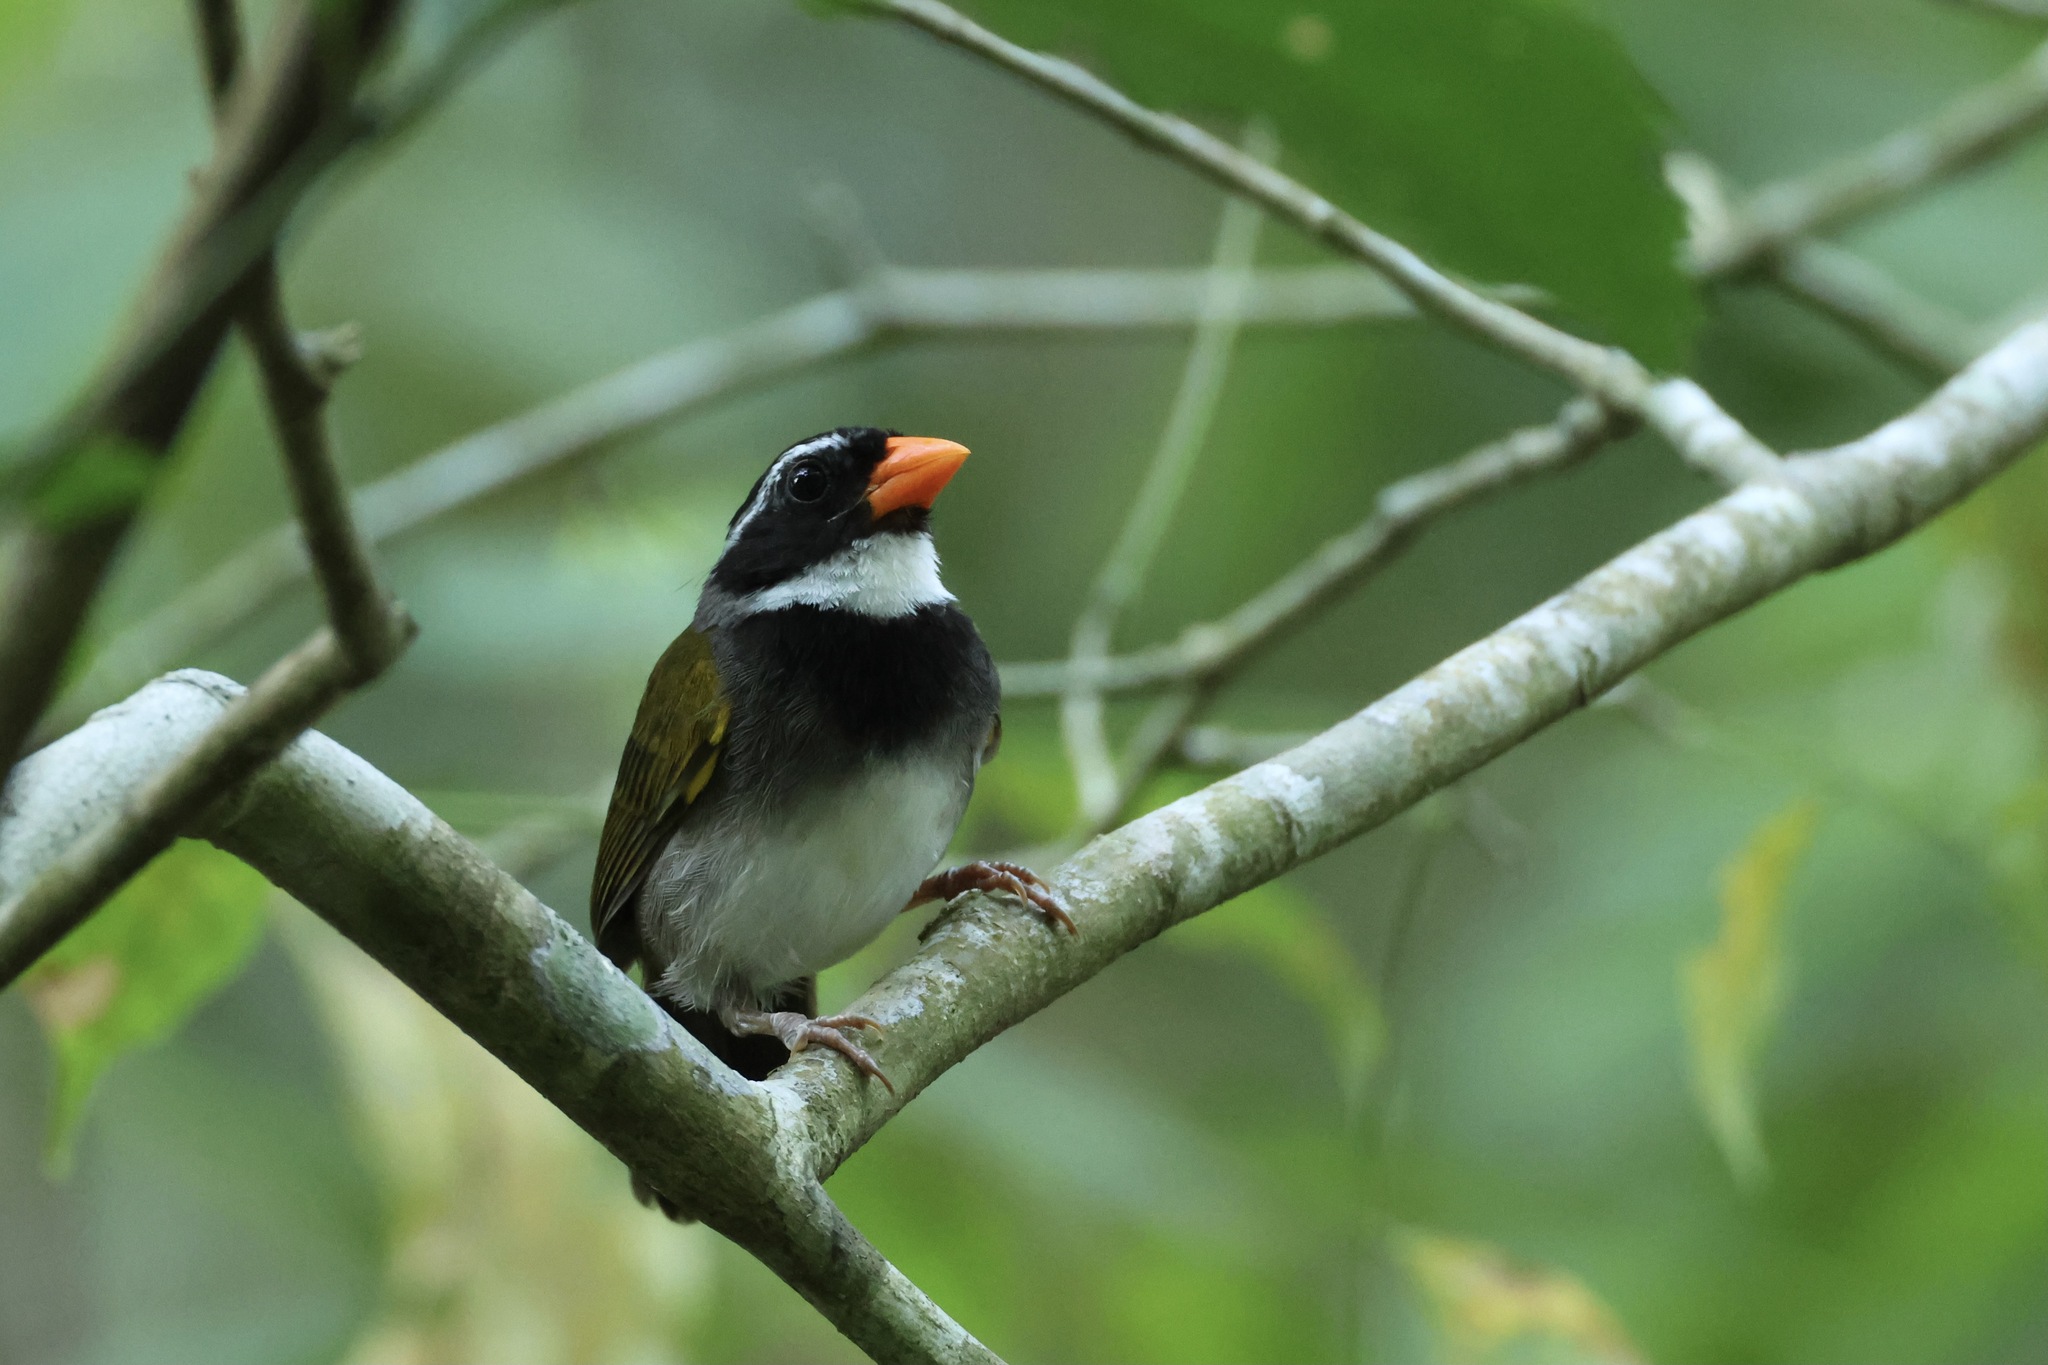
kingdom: Animalia
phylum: Chordata
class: Aves
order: Passeriformes
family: Passerellidae
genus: Arremon
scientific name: Arremon aurantiirostris
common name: Orange-billed sparrow
